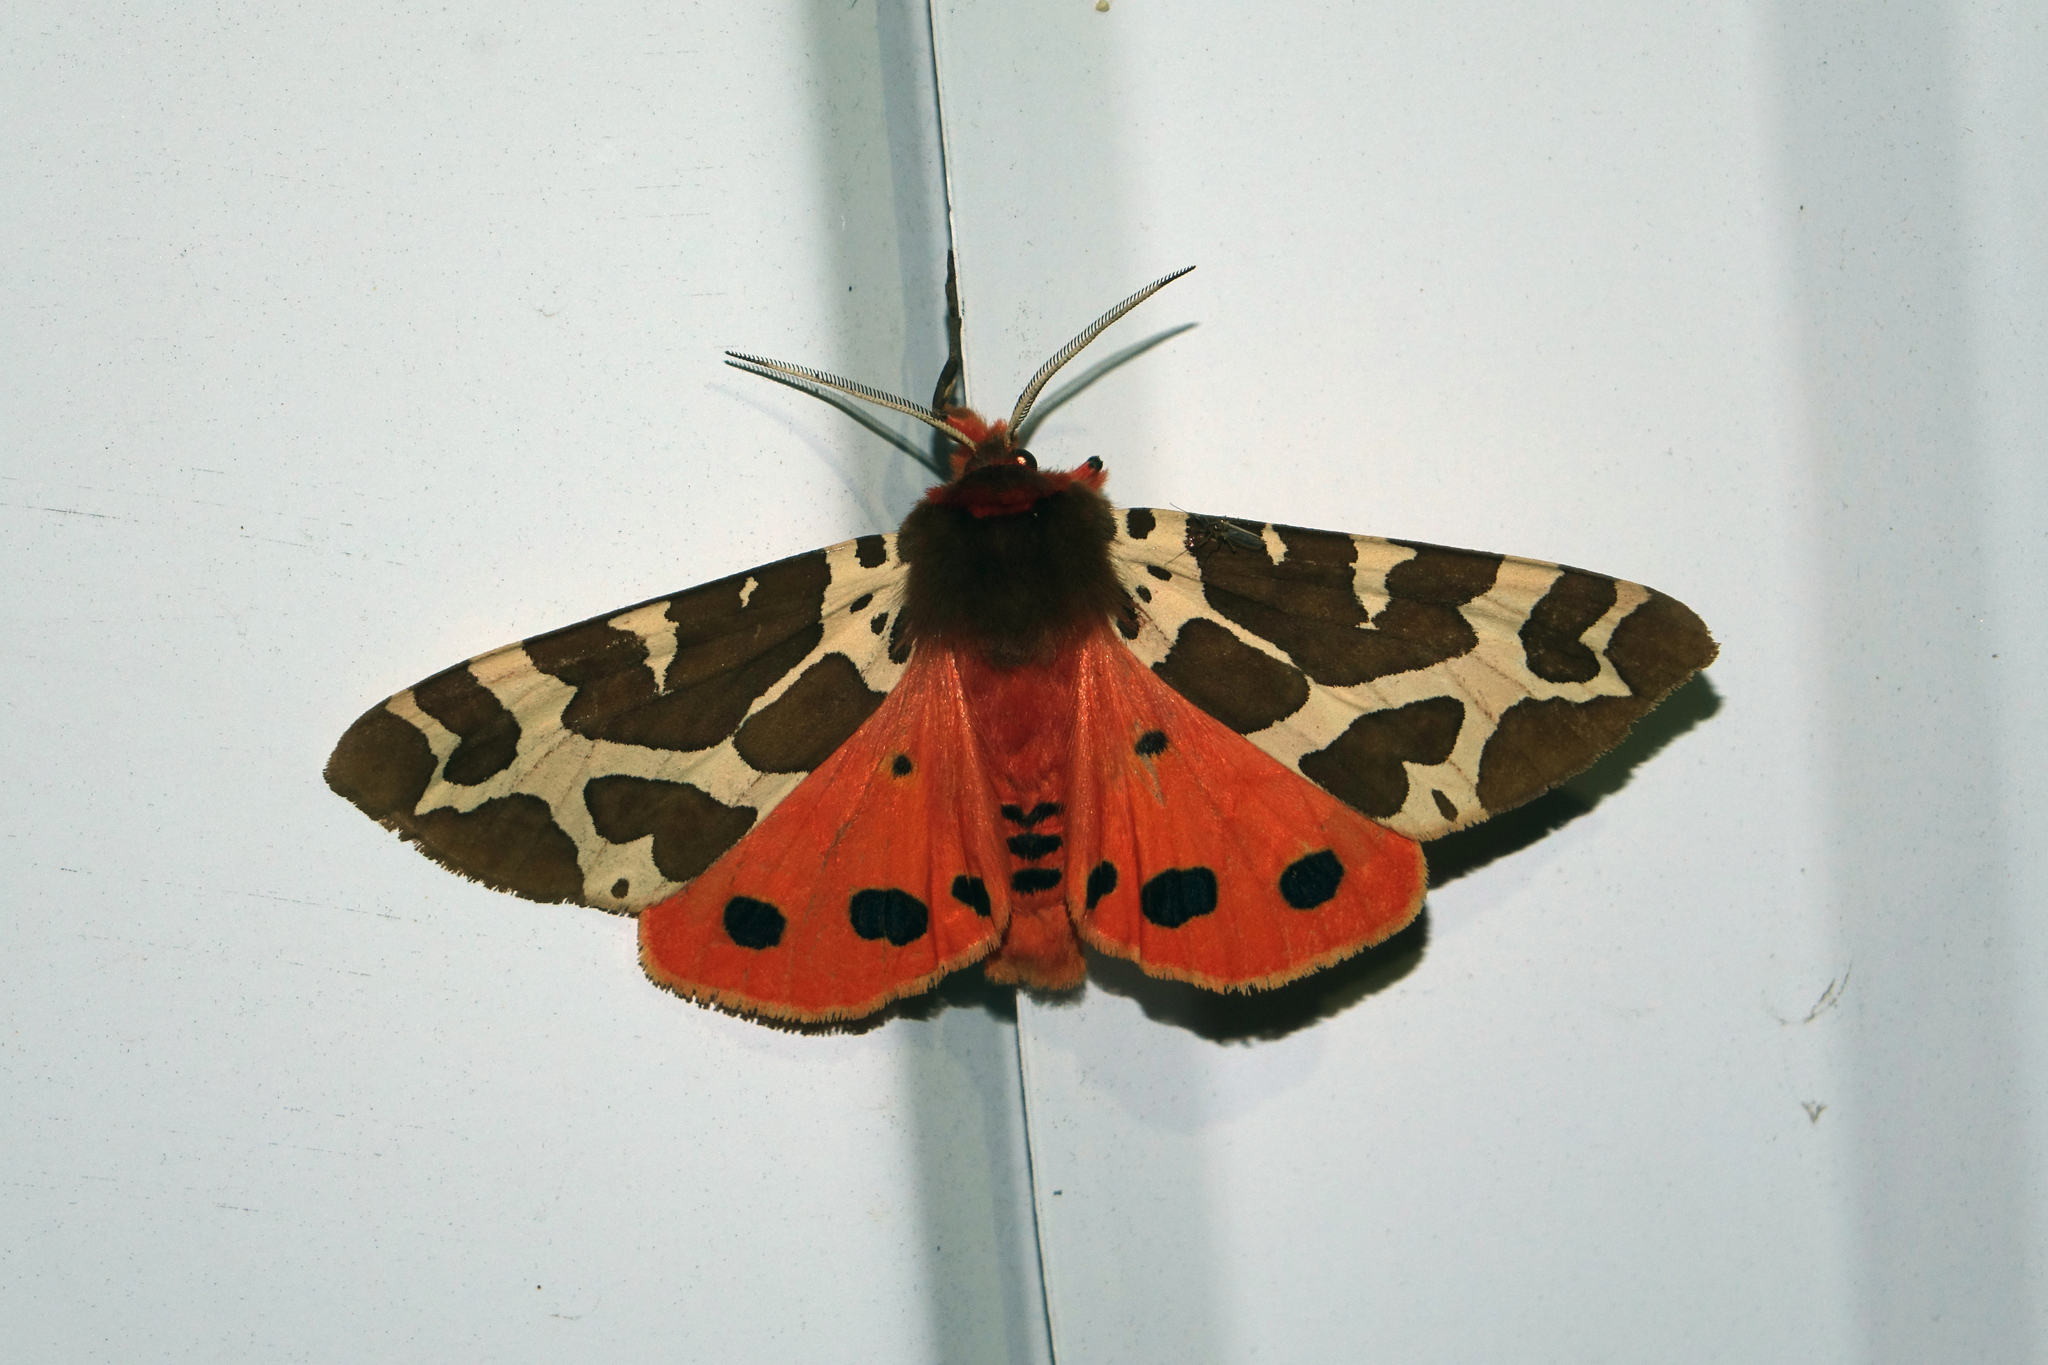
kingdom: Animalia
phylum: Arthropoda
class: Insecta
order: Lepidoptera
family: Erebidae
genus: Arctia
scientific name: Arctia caja
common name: Garden tiger
